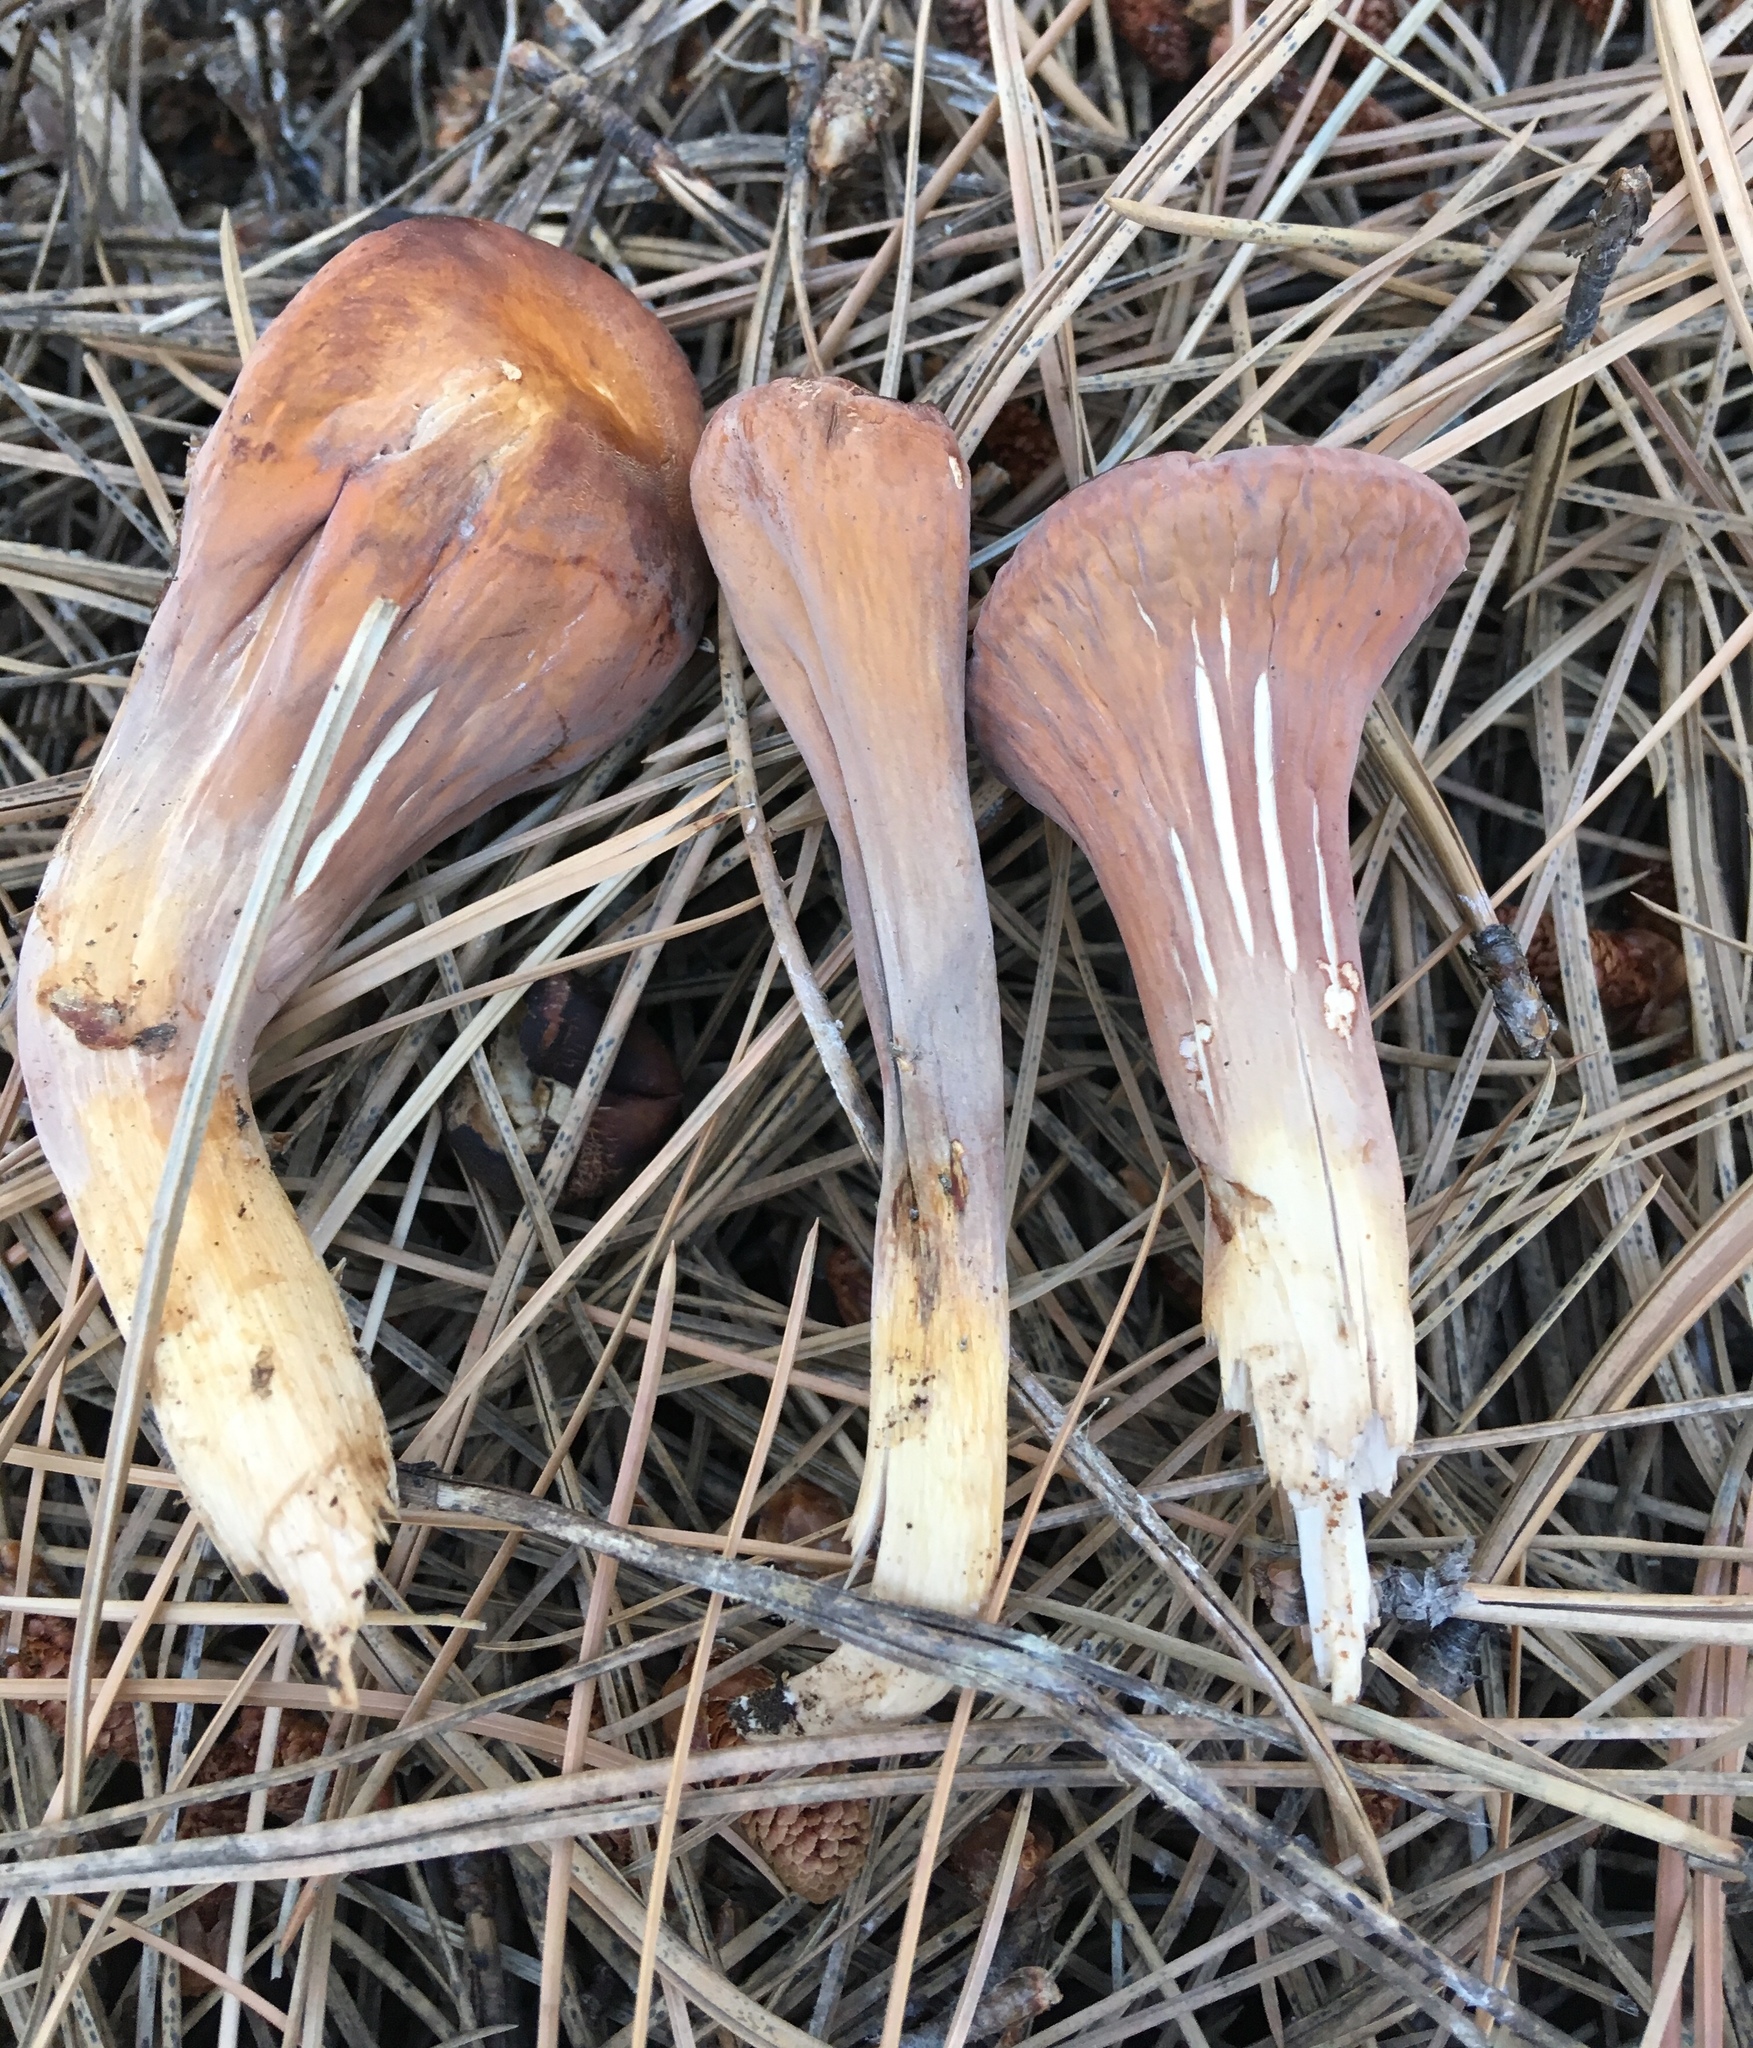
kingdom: Fungi
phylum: Basidiomycota
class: Agaricomycetes
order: Gomphales
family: Clavariadelphaceae
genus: Clavariadelphus
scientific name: Clavariadelphus truncatus
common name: Truncated club
